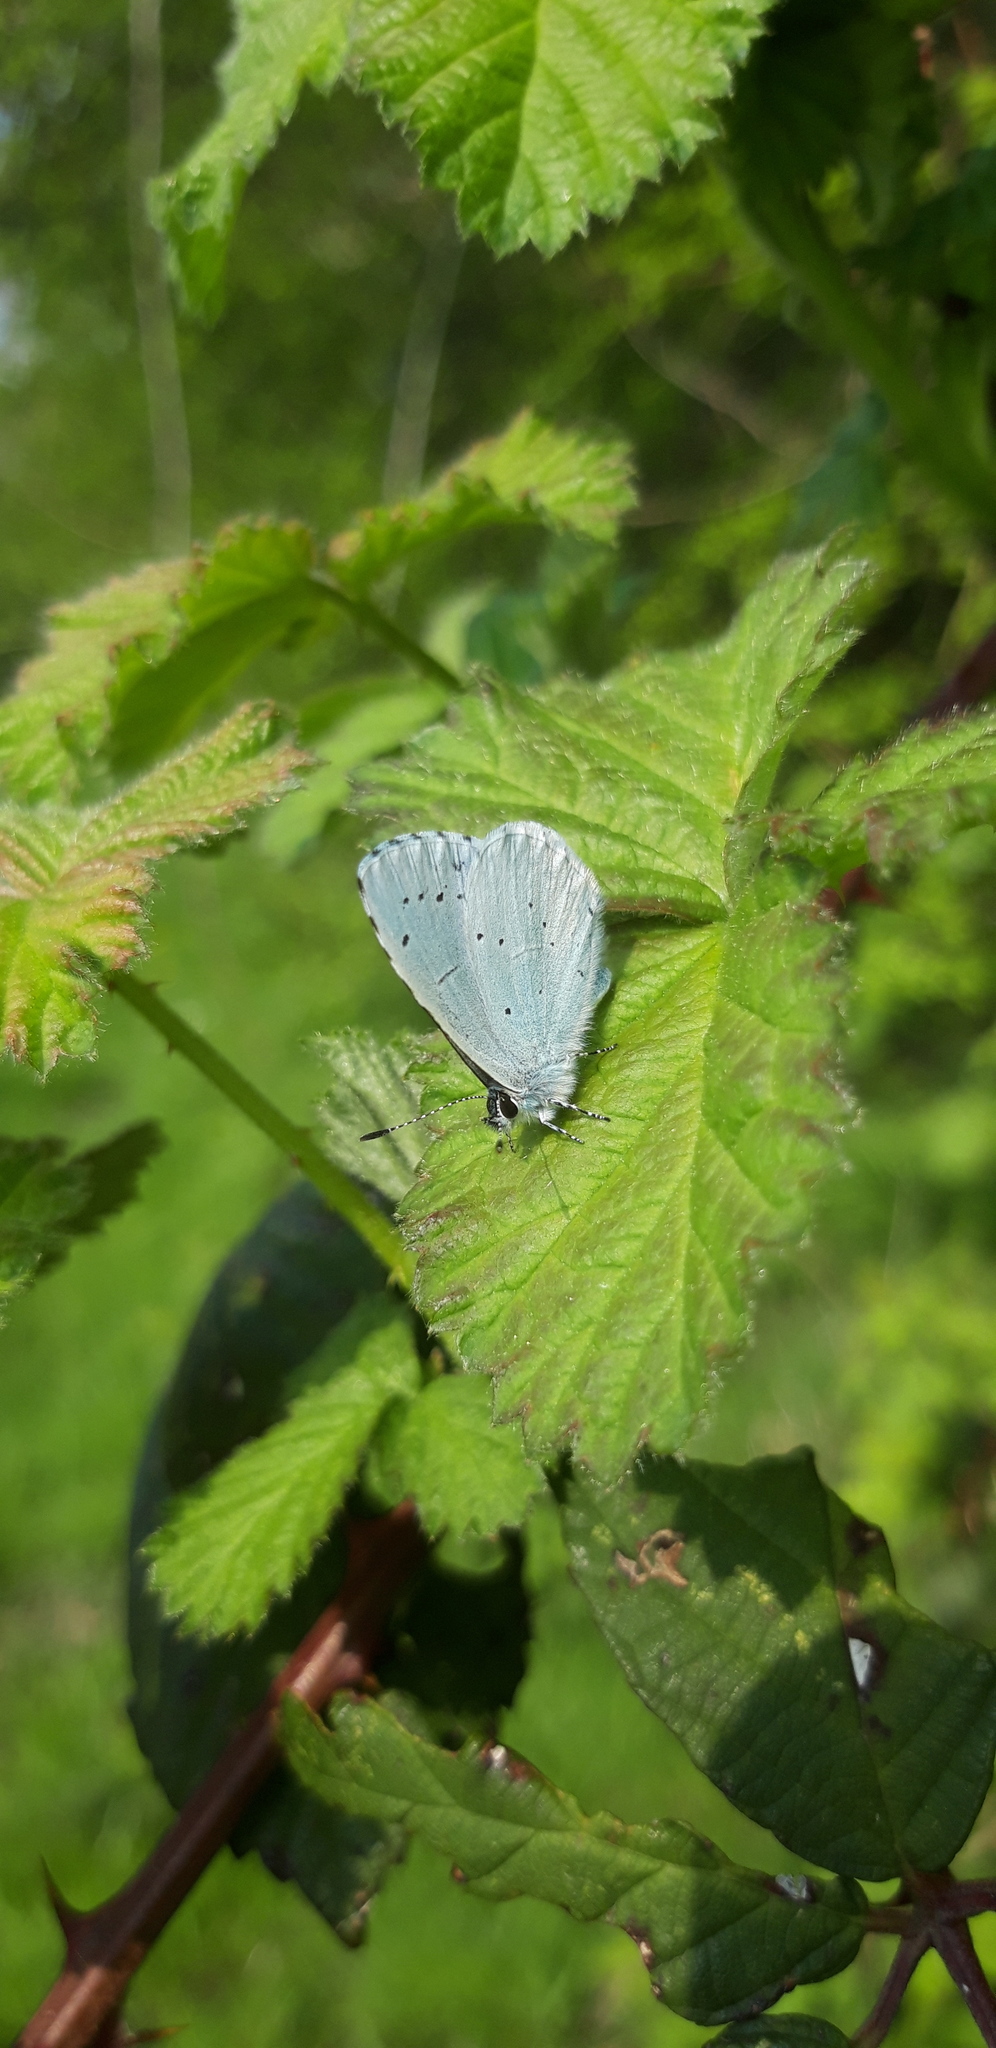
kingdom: Animalia
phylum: Arthropoda
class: Insecta
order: Lepidoptera
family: Lycaenidae
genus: Celastrina
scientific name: Celastrina argiolus
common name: Holly blue
